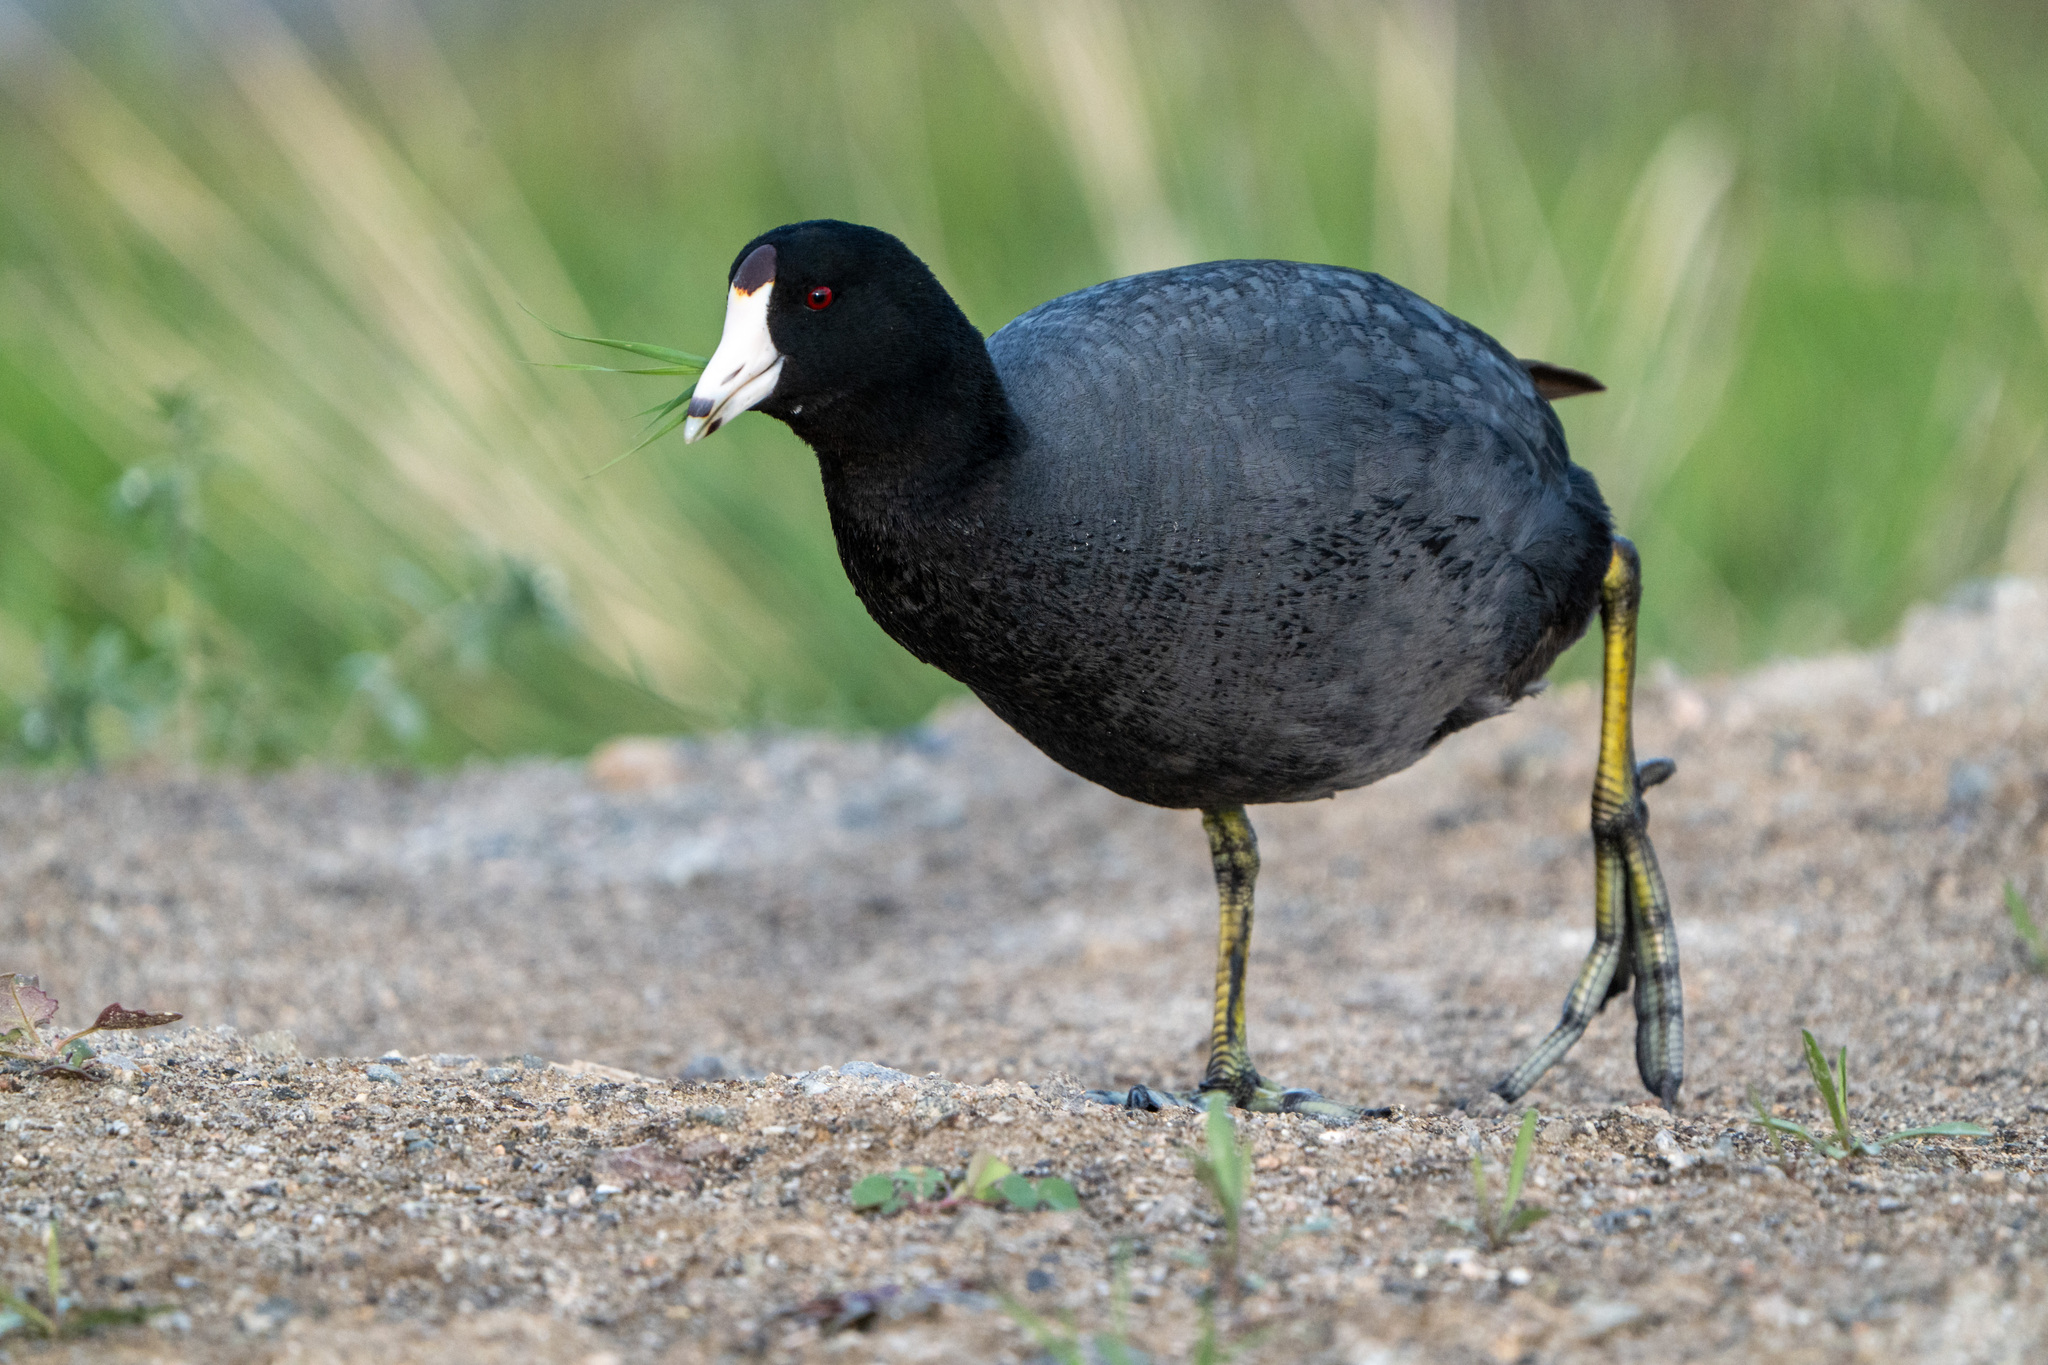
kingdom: Animalia
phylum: Chordata
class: Aves
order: Gruiformes
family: Rallidae
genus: Fulica
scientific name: Fulica americana
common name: American coot
